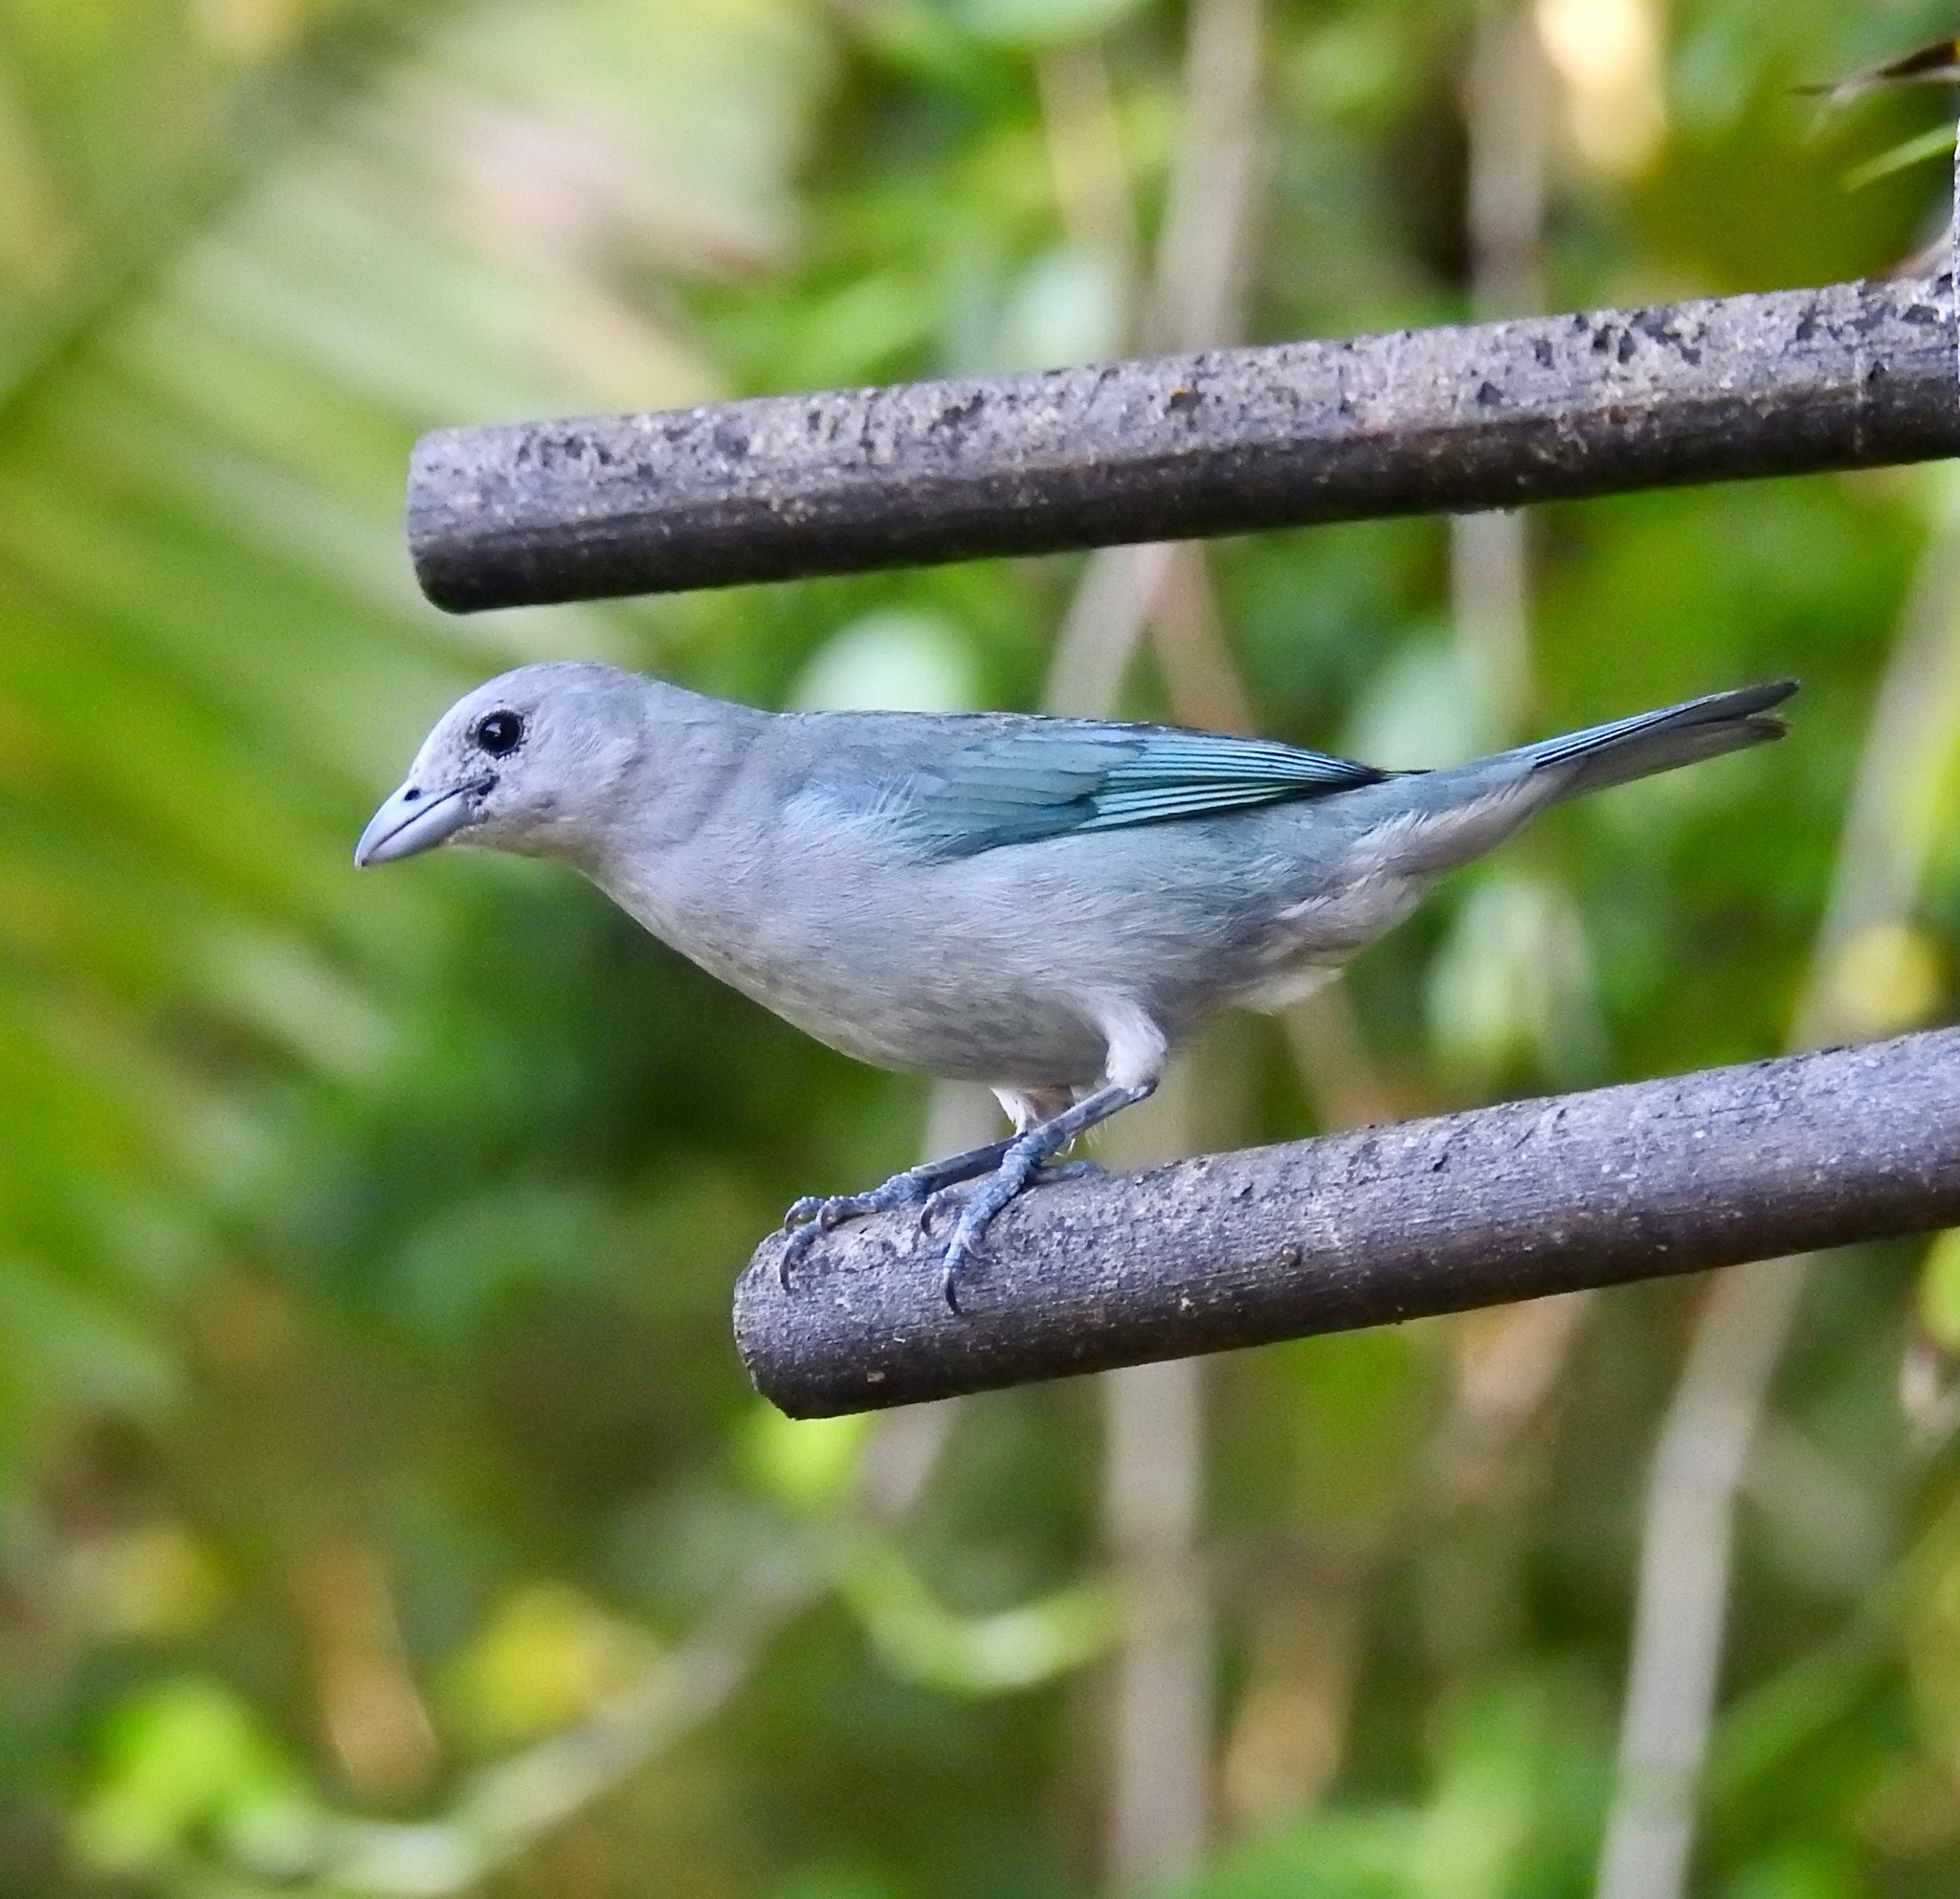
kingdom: Animalia
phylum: Chordata
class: Aves
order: Passeriformes
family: Thraupidae
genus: Thraupis
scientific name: Thraupis sayaca
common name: Sayaca tanager
